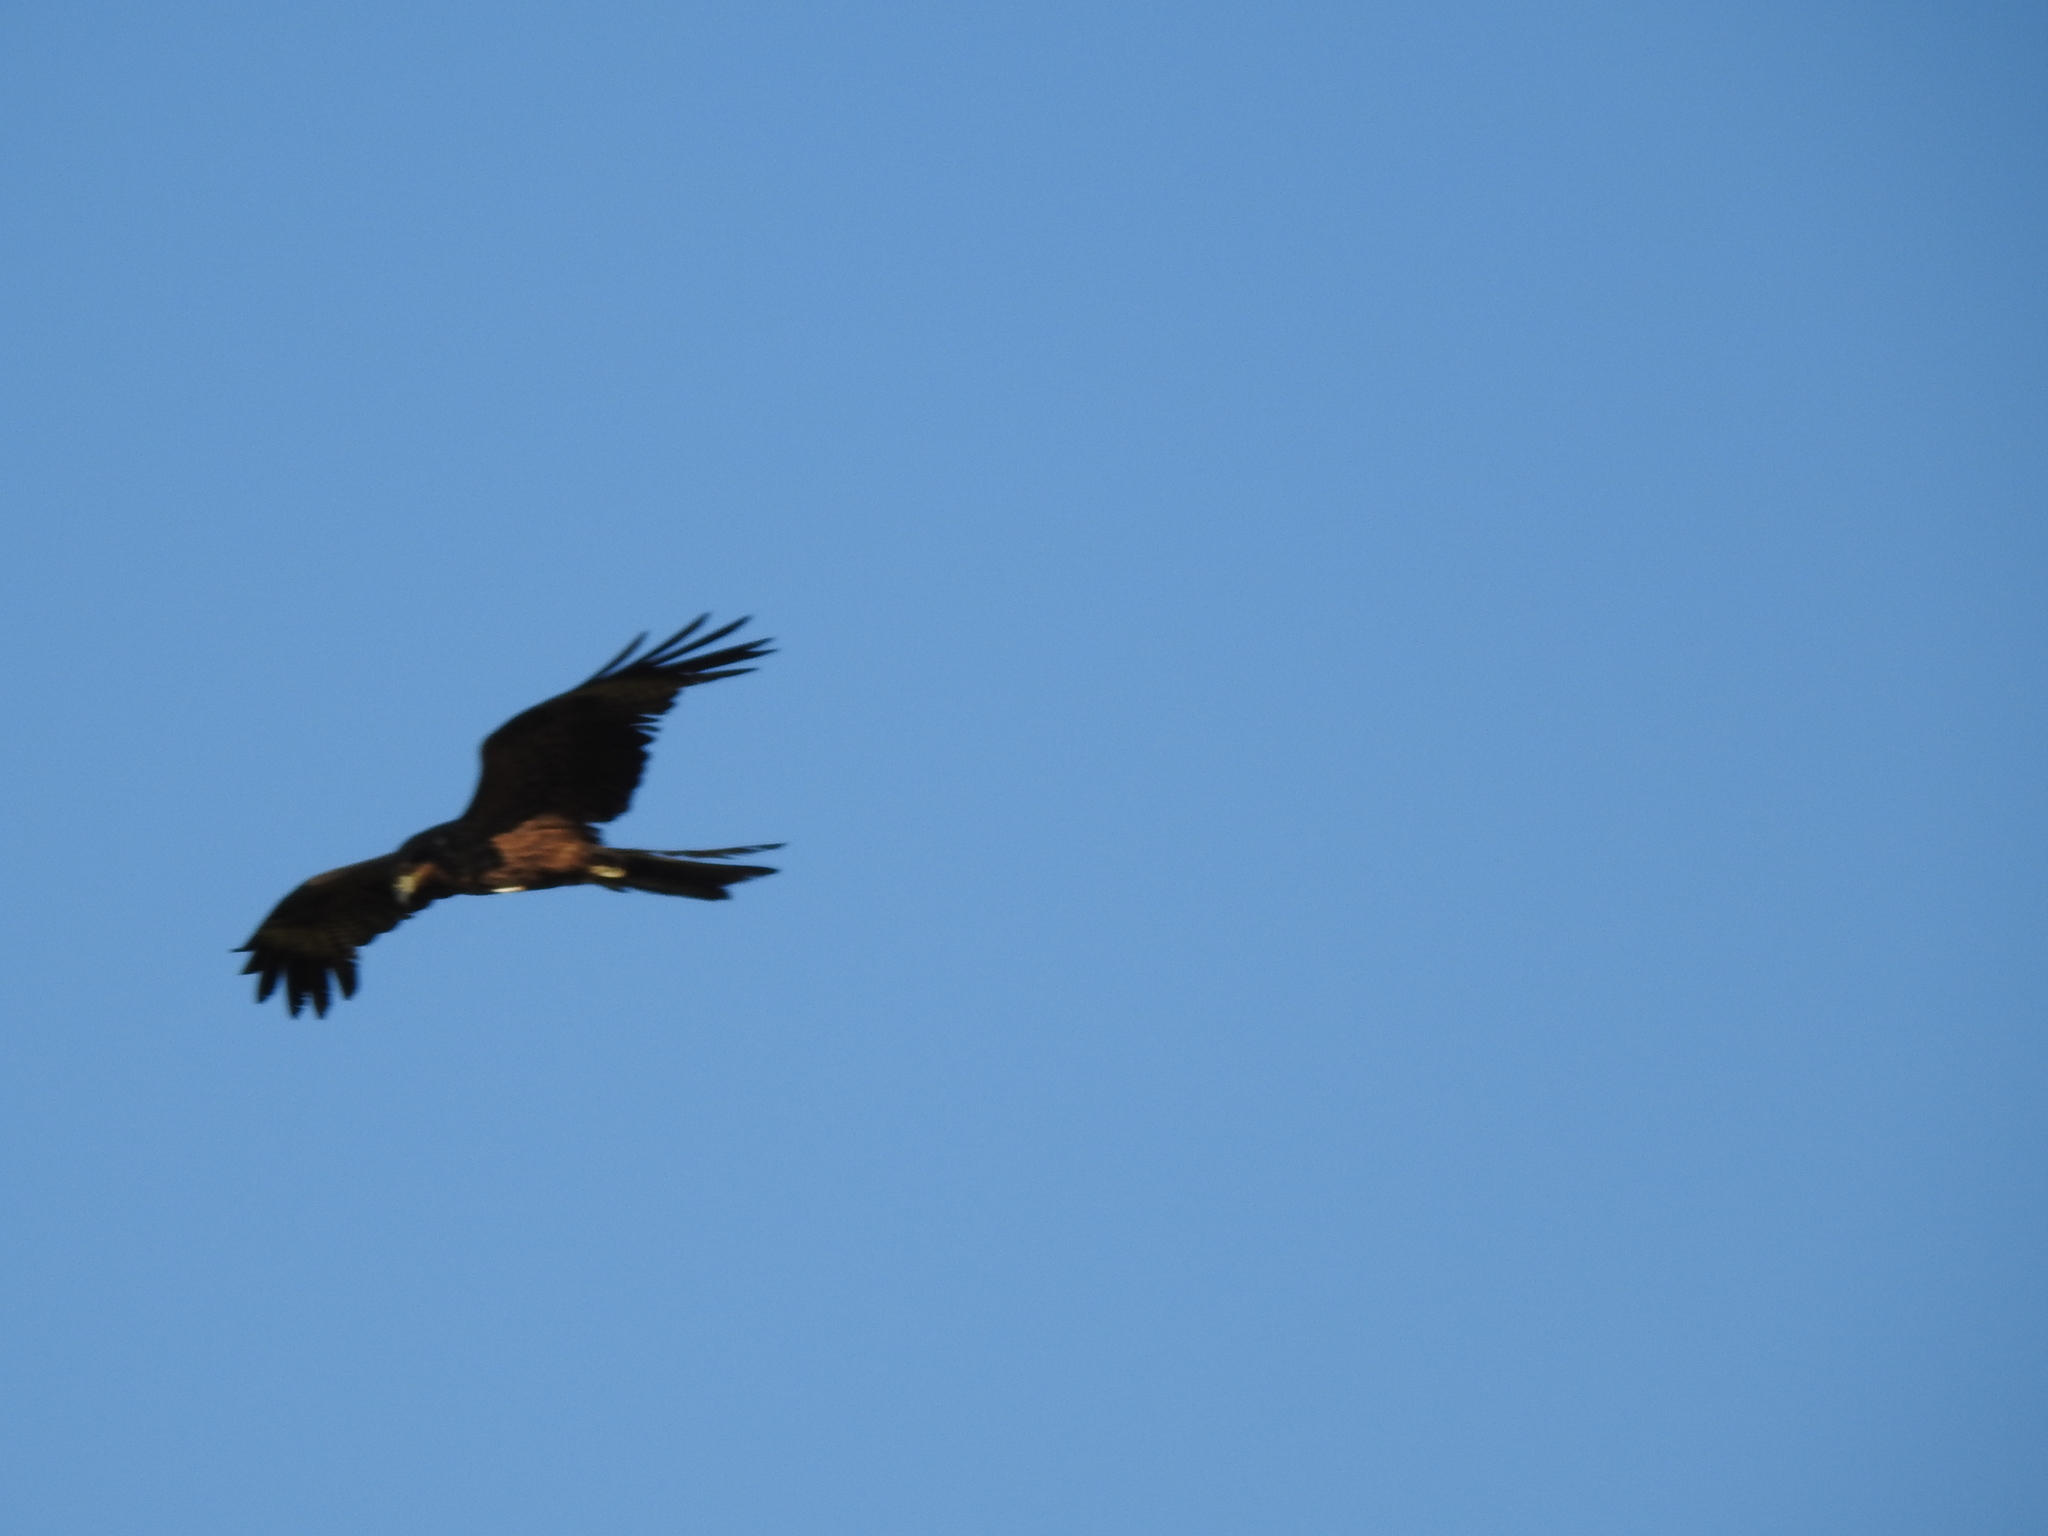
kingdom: Animalia
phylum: Chordata
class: Aves
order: Accipitriformes
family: Accipitridae
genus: Milvus
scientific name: Milvus migrans
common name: Black kite
